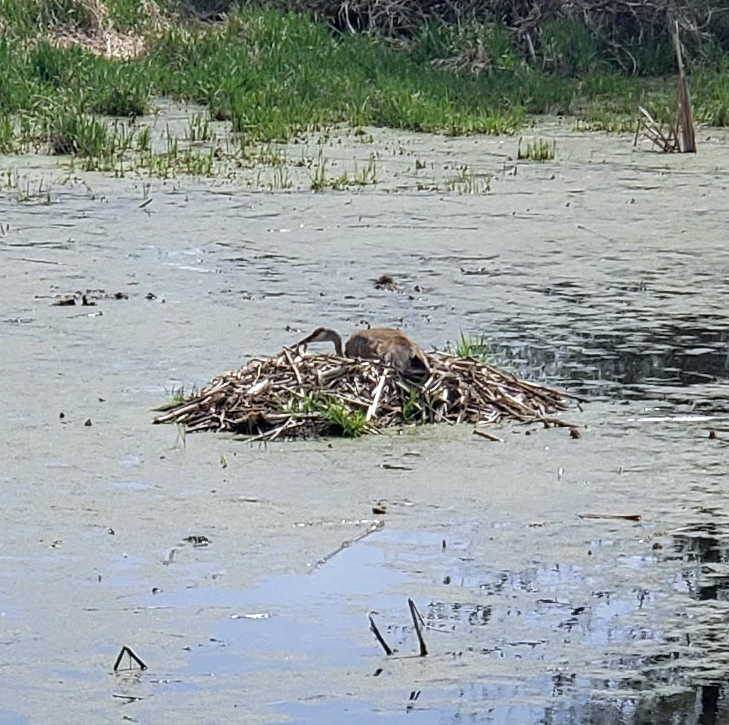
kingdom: Animalia
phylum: Chordata
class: Aves
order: Gruiformes
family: Gruidae
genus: Grus
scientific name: Grus canadensis
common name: Sandhill crane
